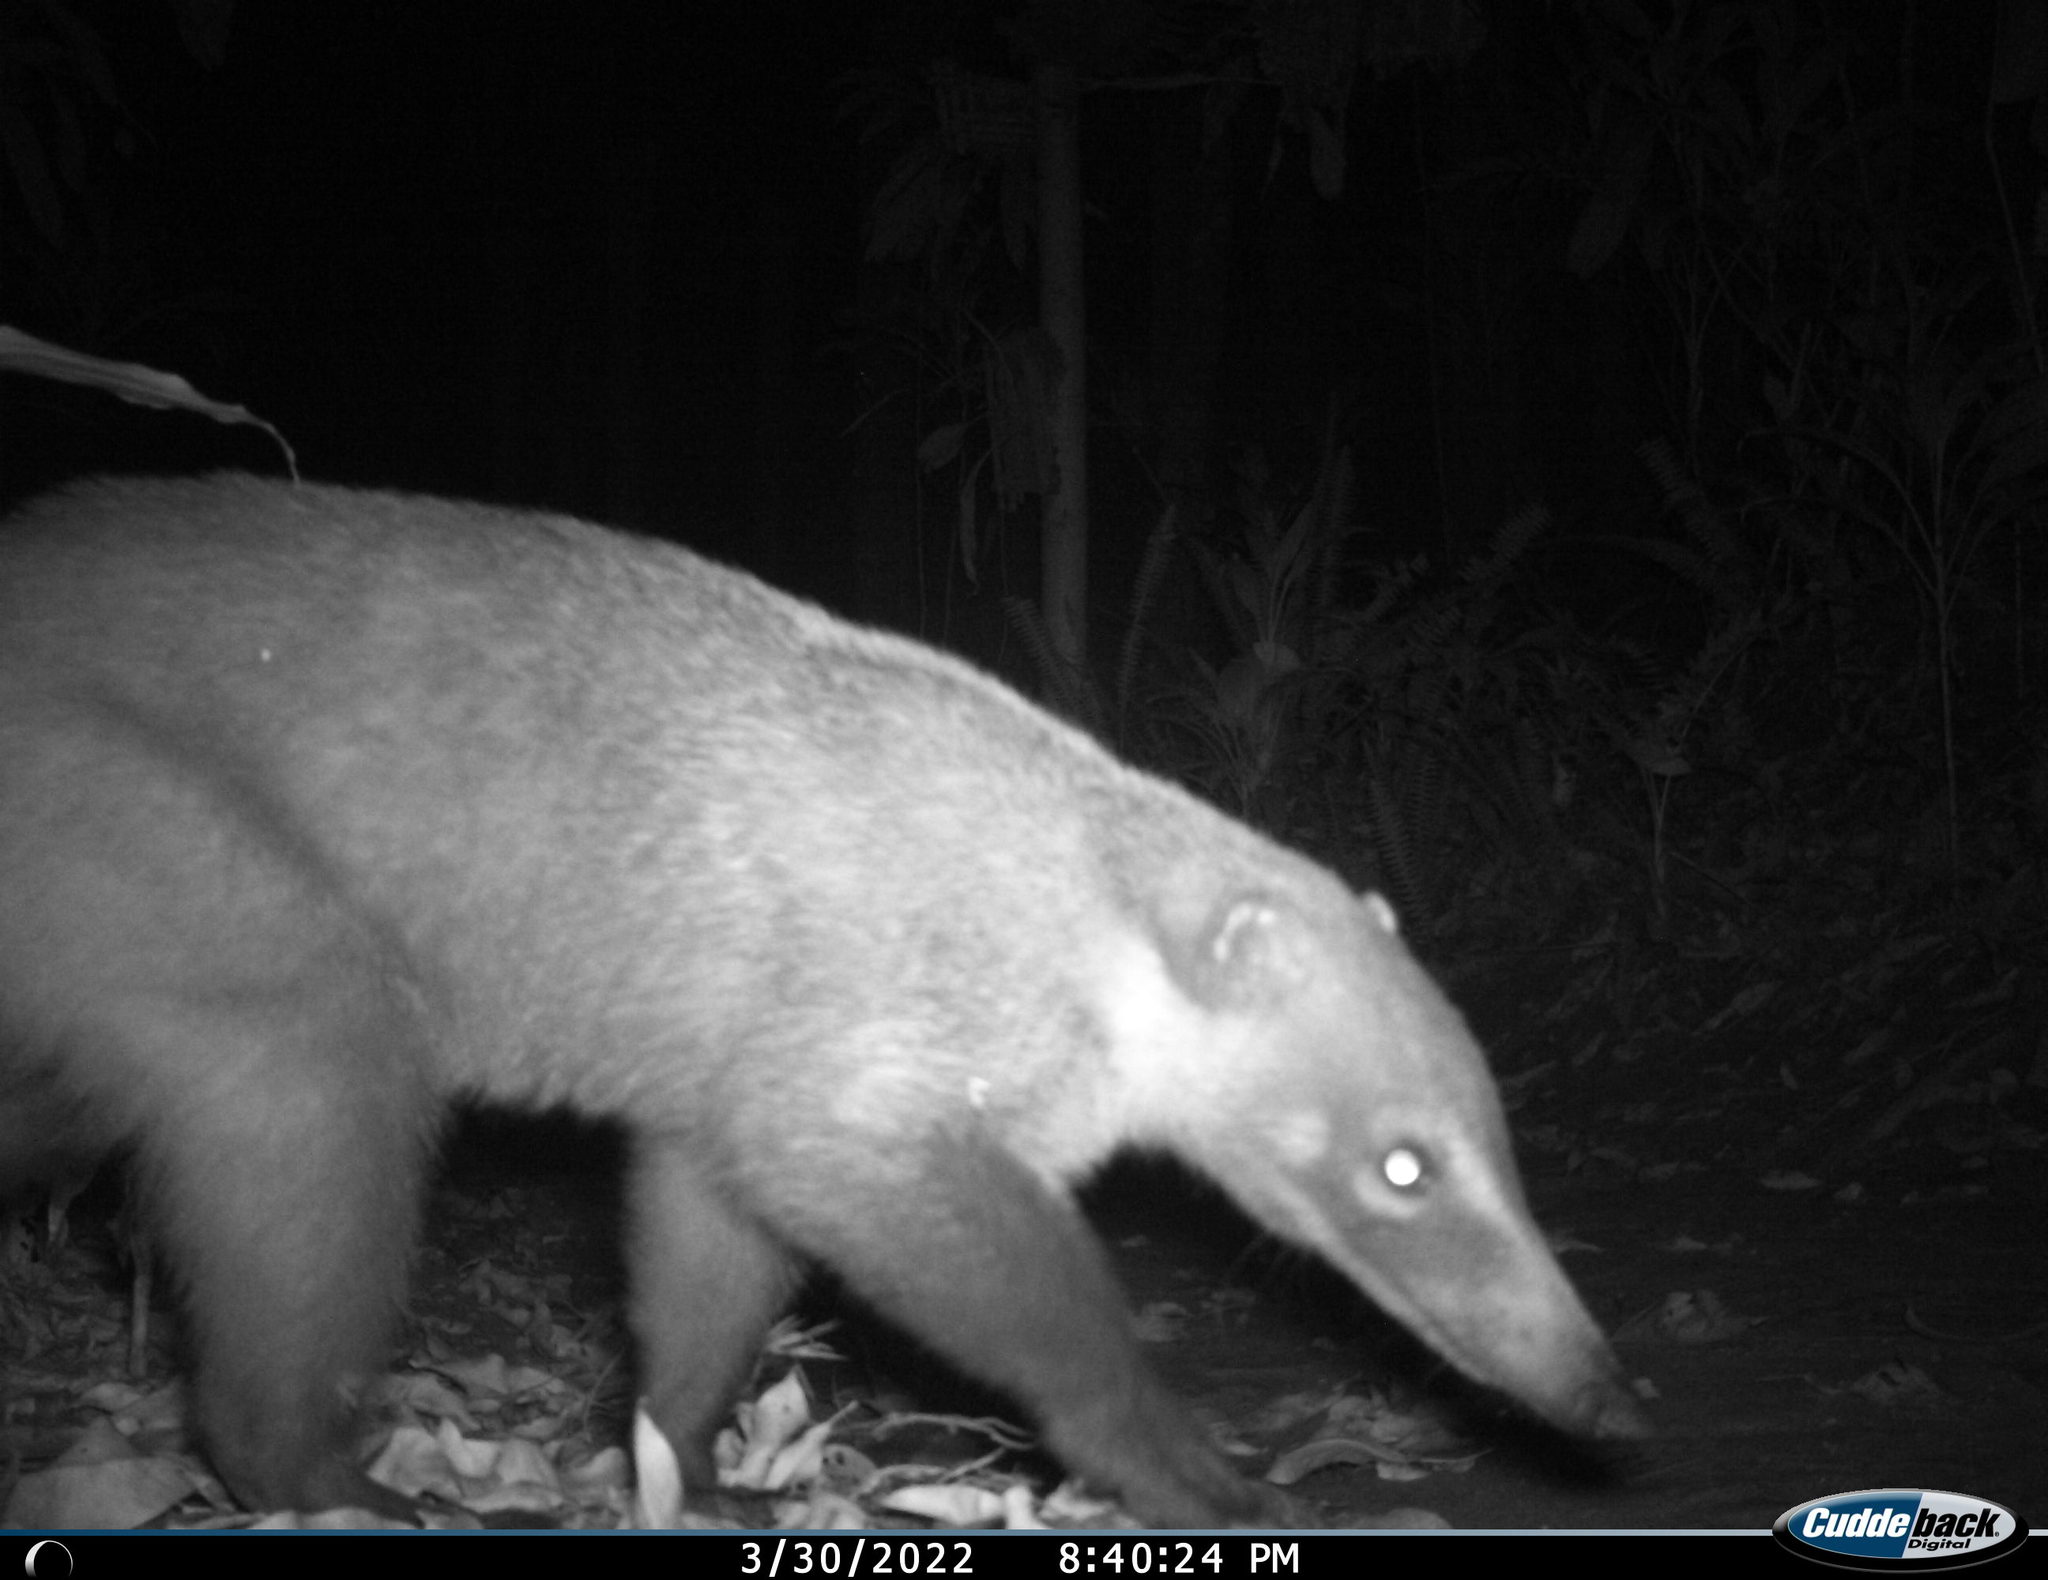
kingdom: Animalia
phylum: Chordata
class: Mammalia
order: Carnivora
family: Procyonidae
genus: Nasua
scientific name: Nasua narica
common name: White-nosed coati
